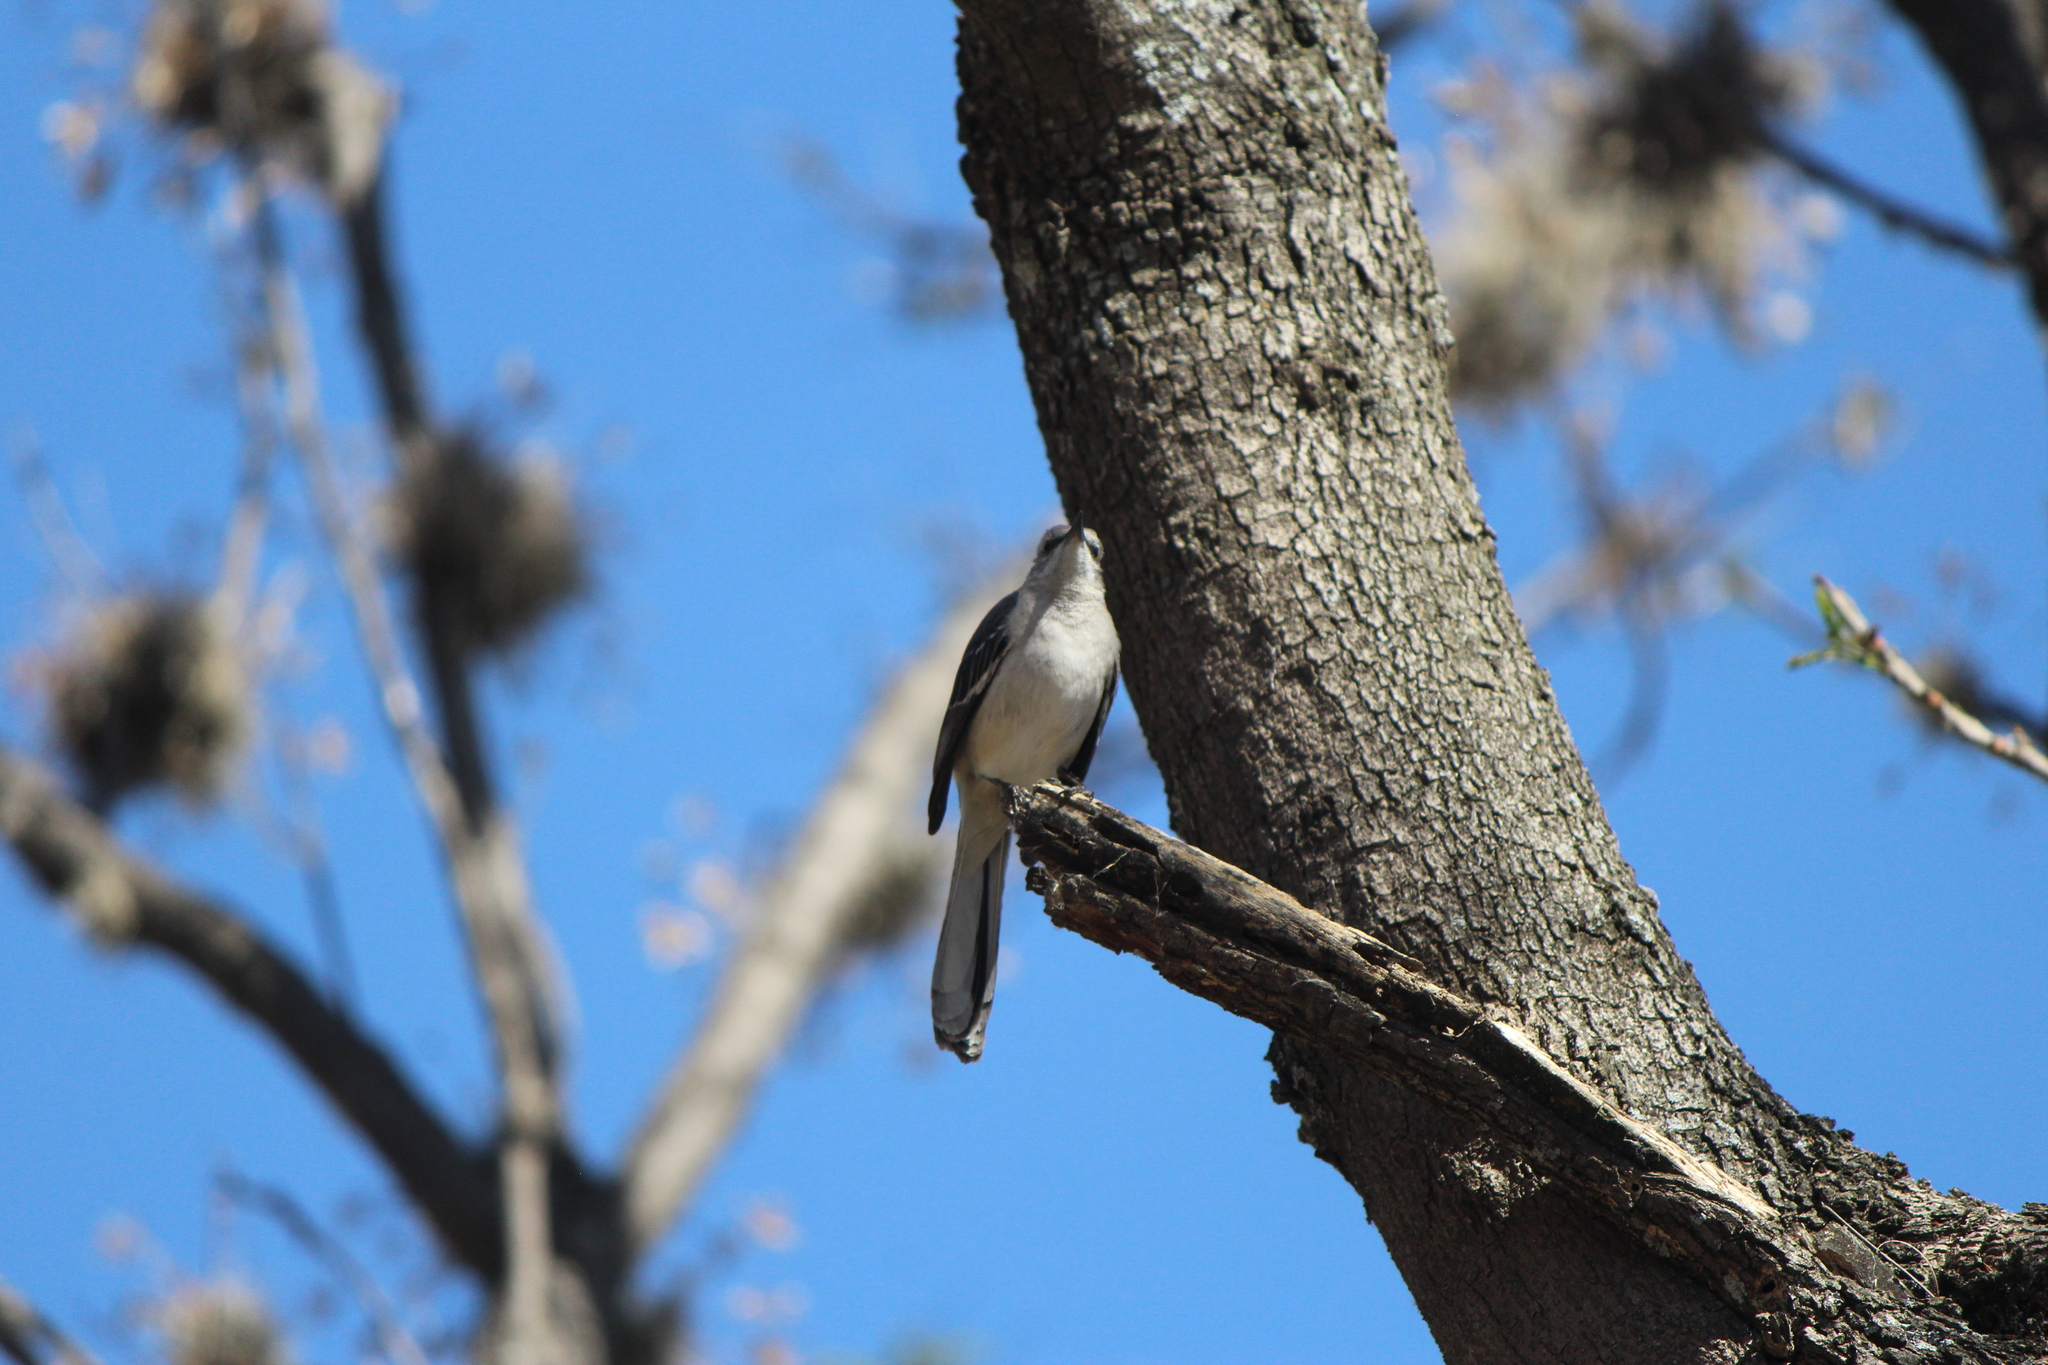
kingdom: Animalia
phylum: Chordata
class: Aves
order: Passeriformes
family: Mimidae
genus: Mimus
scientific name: Mimus polyglottos
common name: Northern mockingbird
